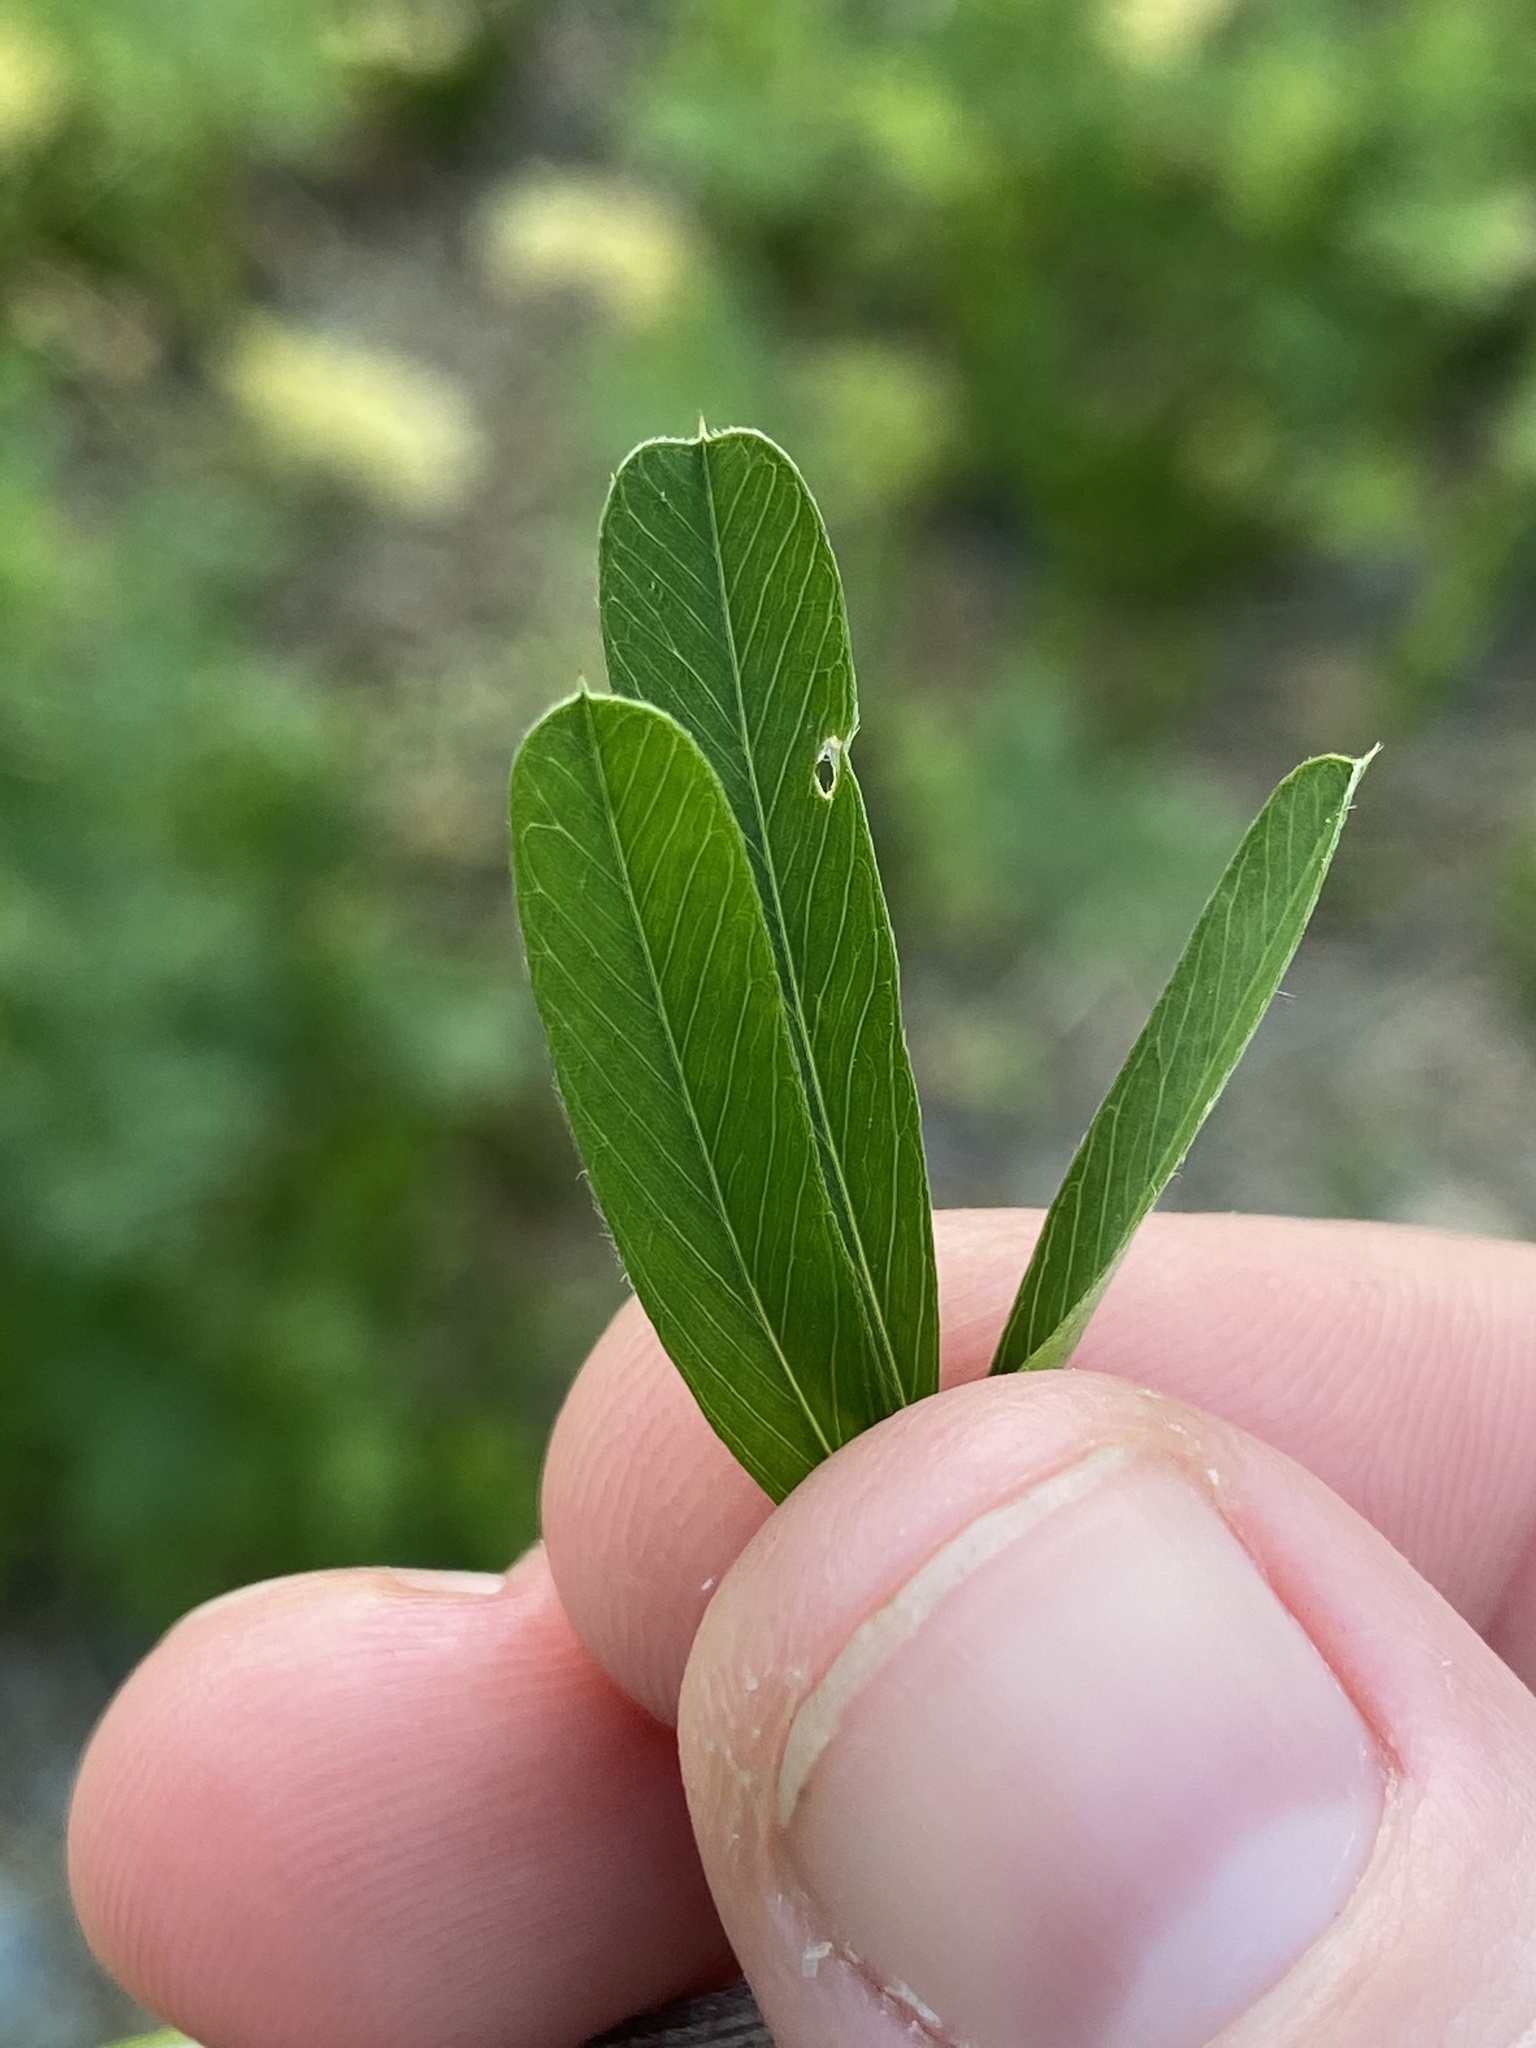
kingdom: Plantae
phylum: Tracheophyta
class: Magnoliopsida
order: Fabales
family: Fabaceae
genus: Lespedeza
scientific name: Lespedeza cuneata
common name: Chinese bush-clover
